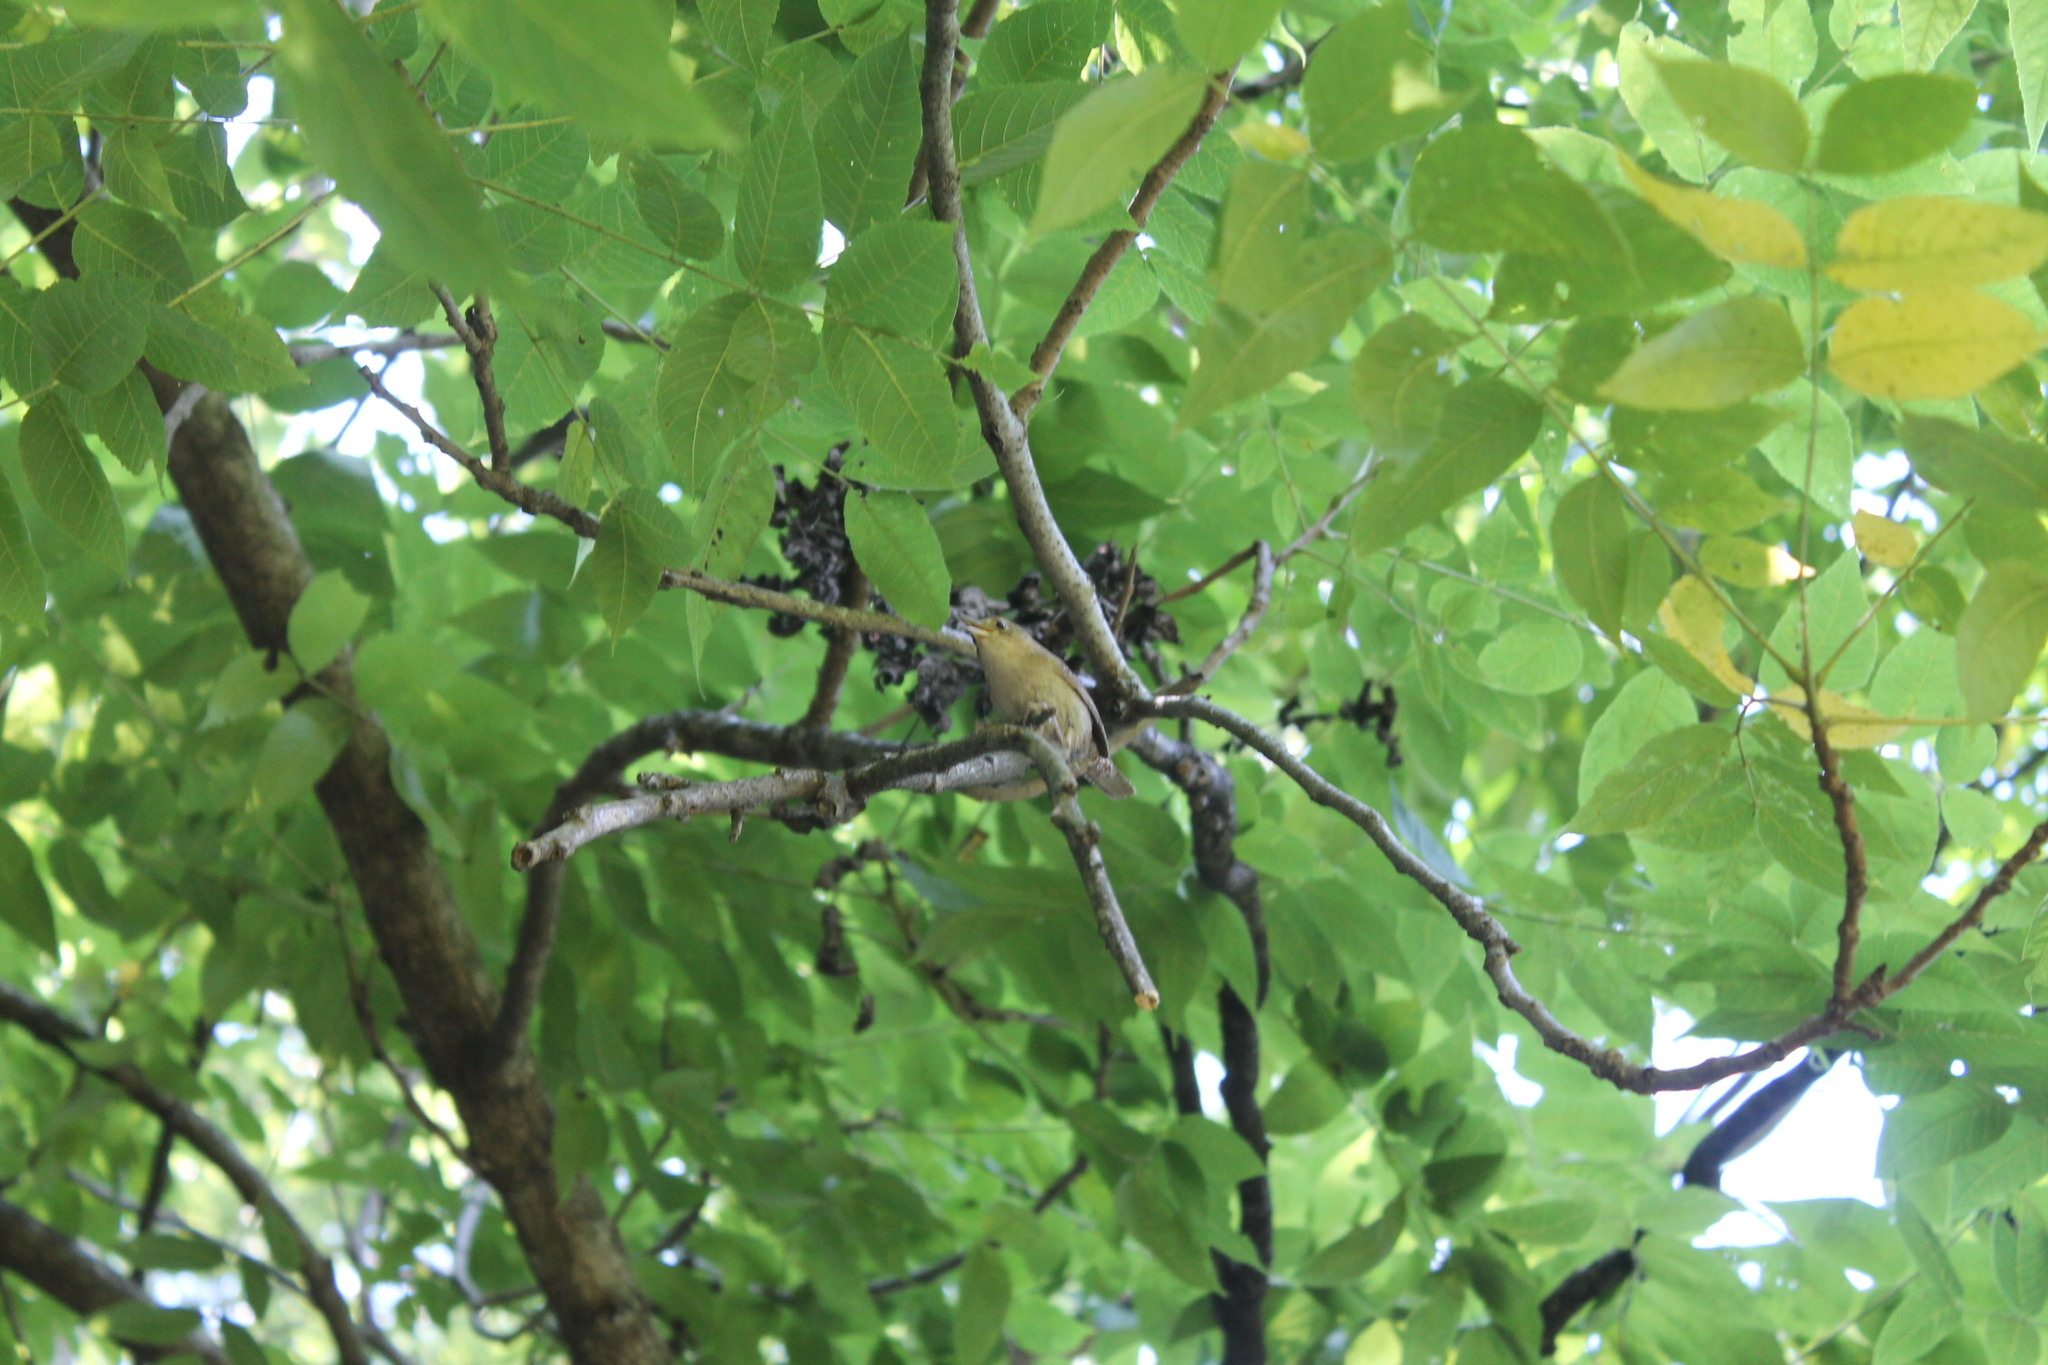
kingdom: Animalia
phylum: Chordata
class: Aves
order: Passeriformes
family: Troglodytidae
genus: Troglodytes
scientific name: Troglodytes aedon
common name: House wren
